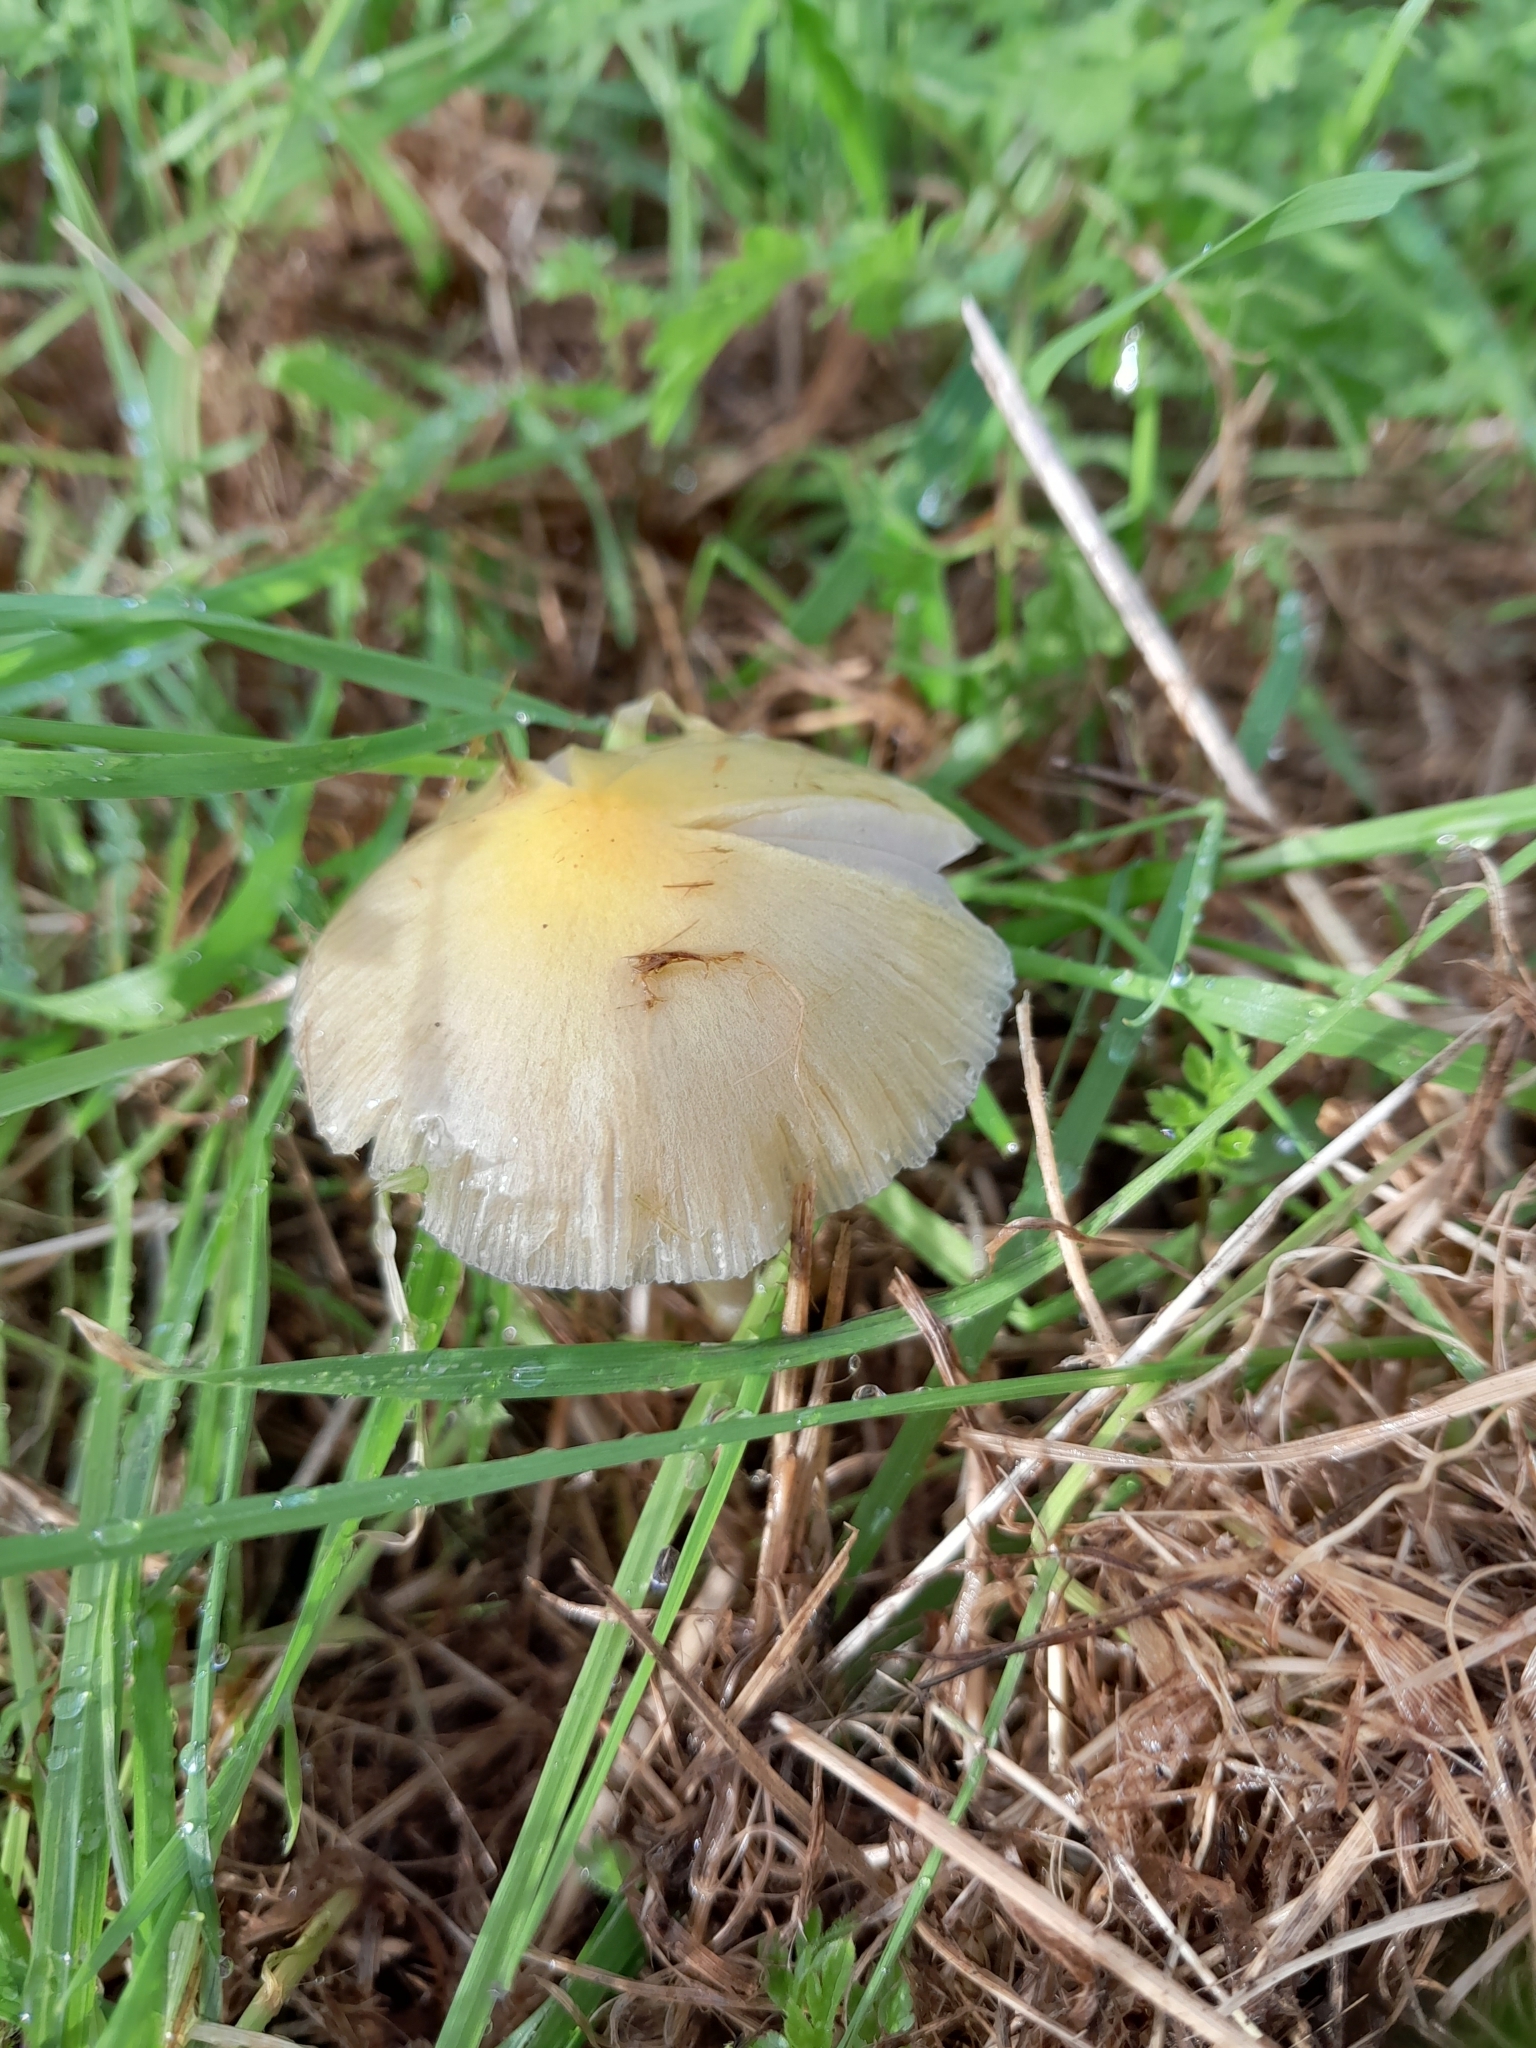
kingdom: Fungi
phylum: Basidiomycota
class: Agaricomycetes
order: Agaricales
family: Bolbitiaceae
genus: Bolbitius
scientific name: Bolbitius titubans
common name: Yellow fieldcap
